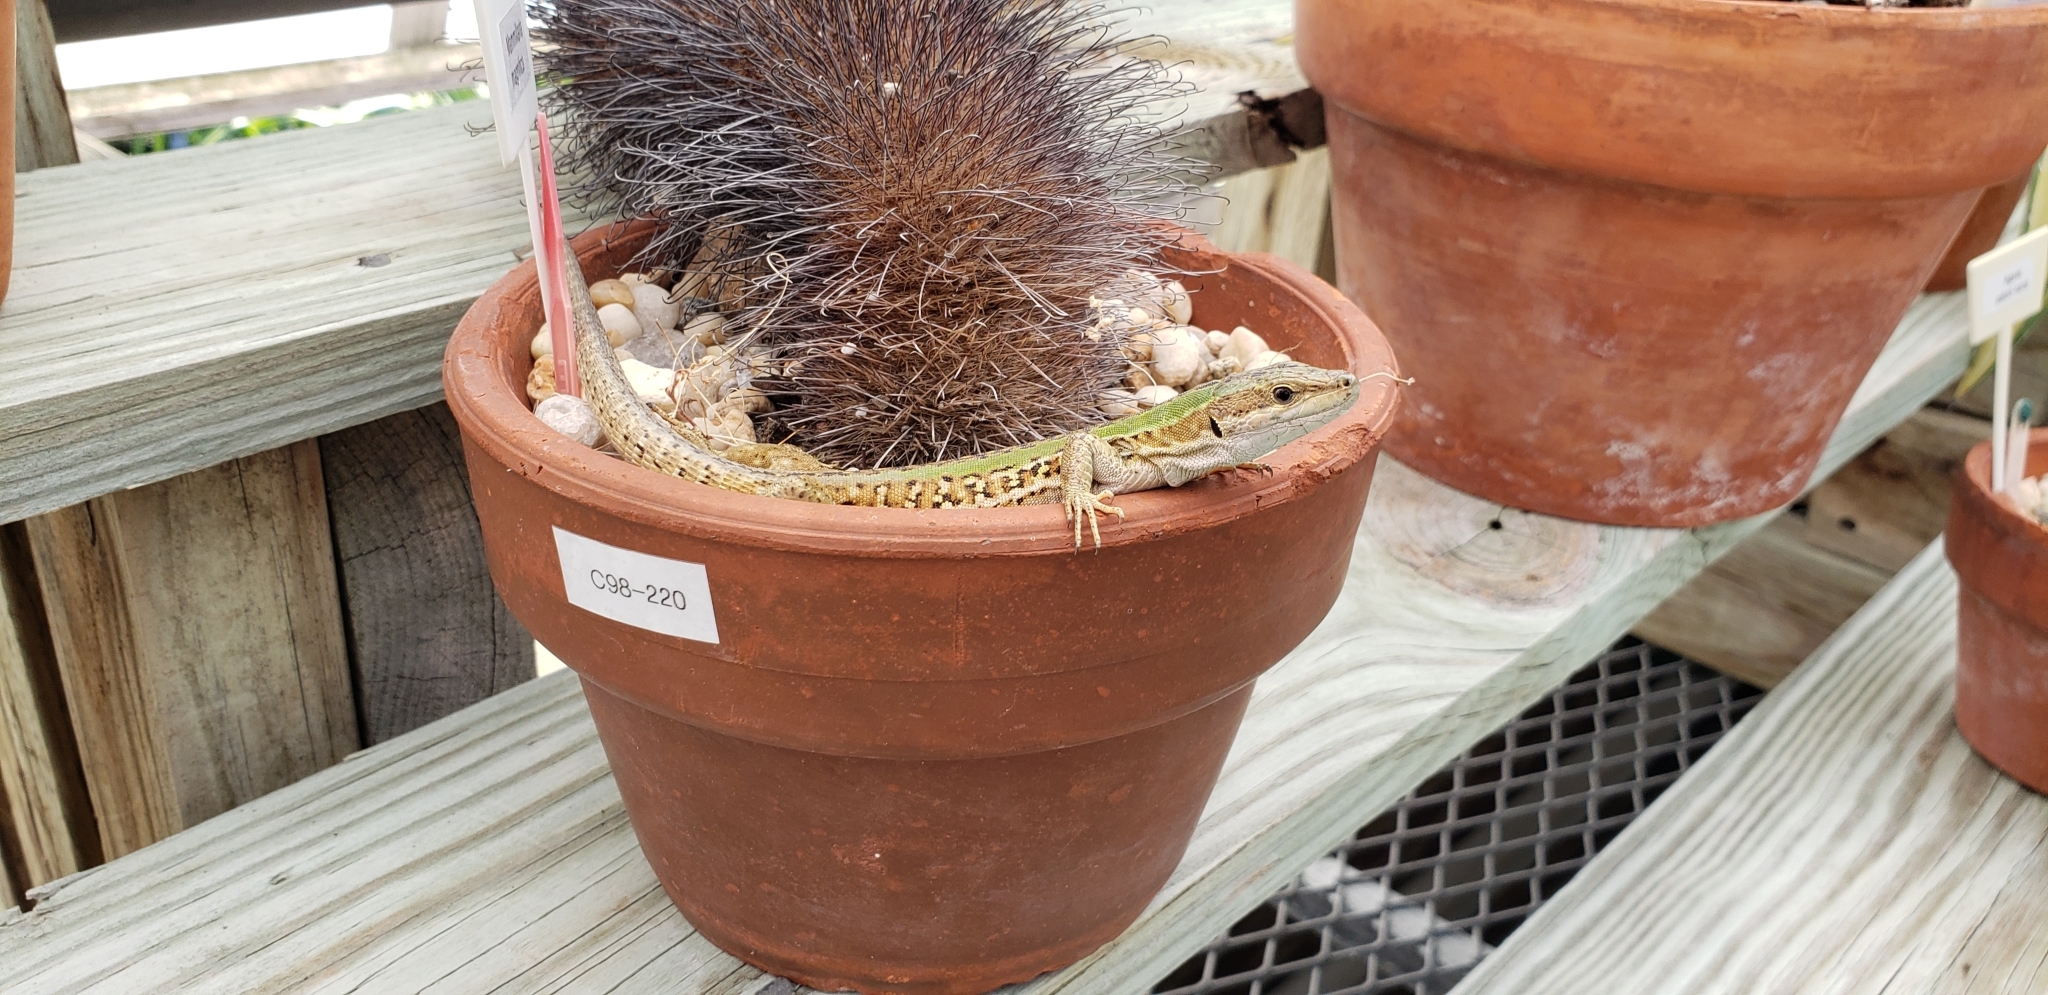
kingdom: Animalia
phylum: Chordata
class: Squamata
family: Lacertidae
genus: Podarcis
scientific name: Podarcis siculus
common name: Italian wall lizard
